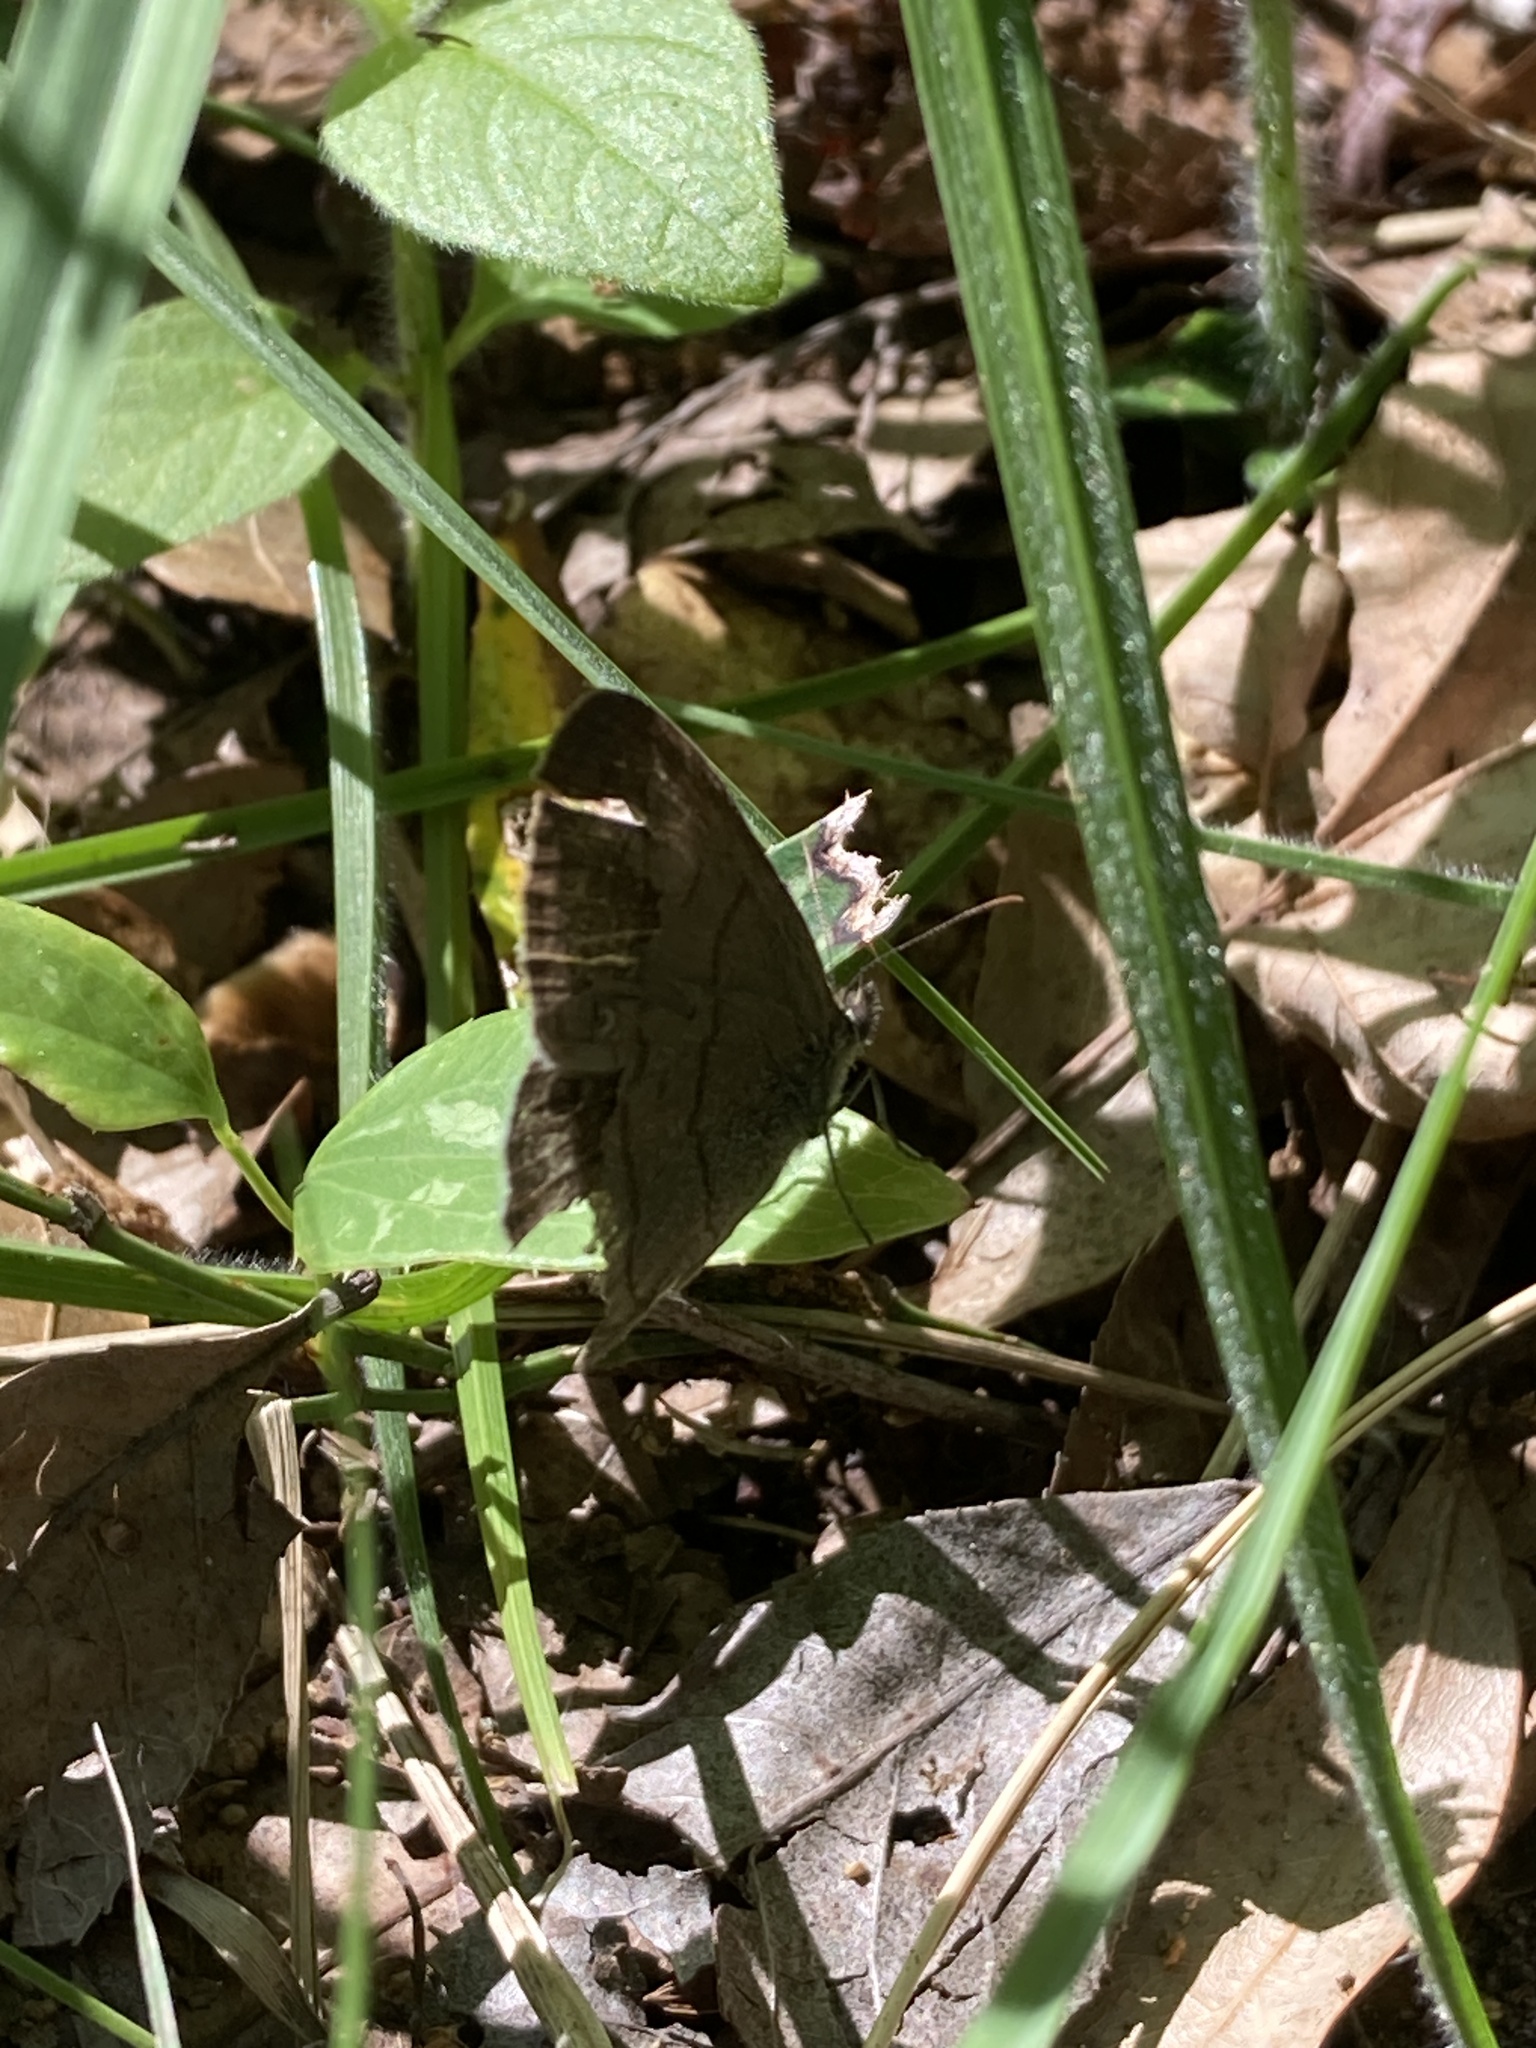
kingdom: Animalia
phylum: Arthropoda
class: Insecta
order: Lepidoptera
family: Nymphalidae
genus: Hermeuptychia
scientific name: Hermeuptychia hermes
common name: Hermes satyr
